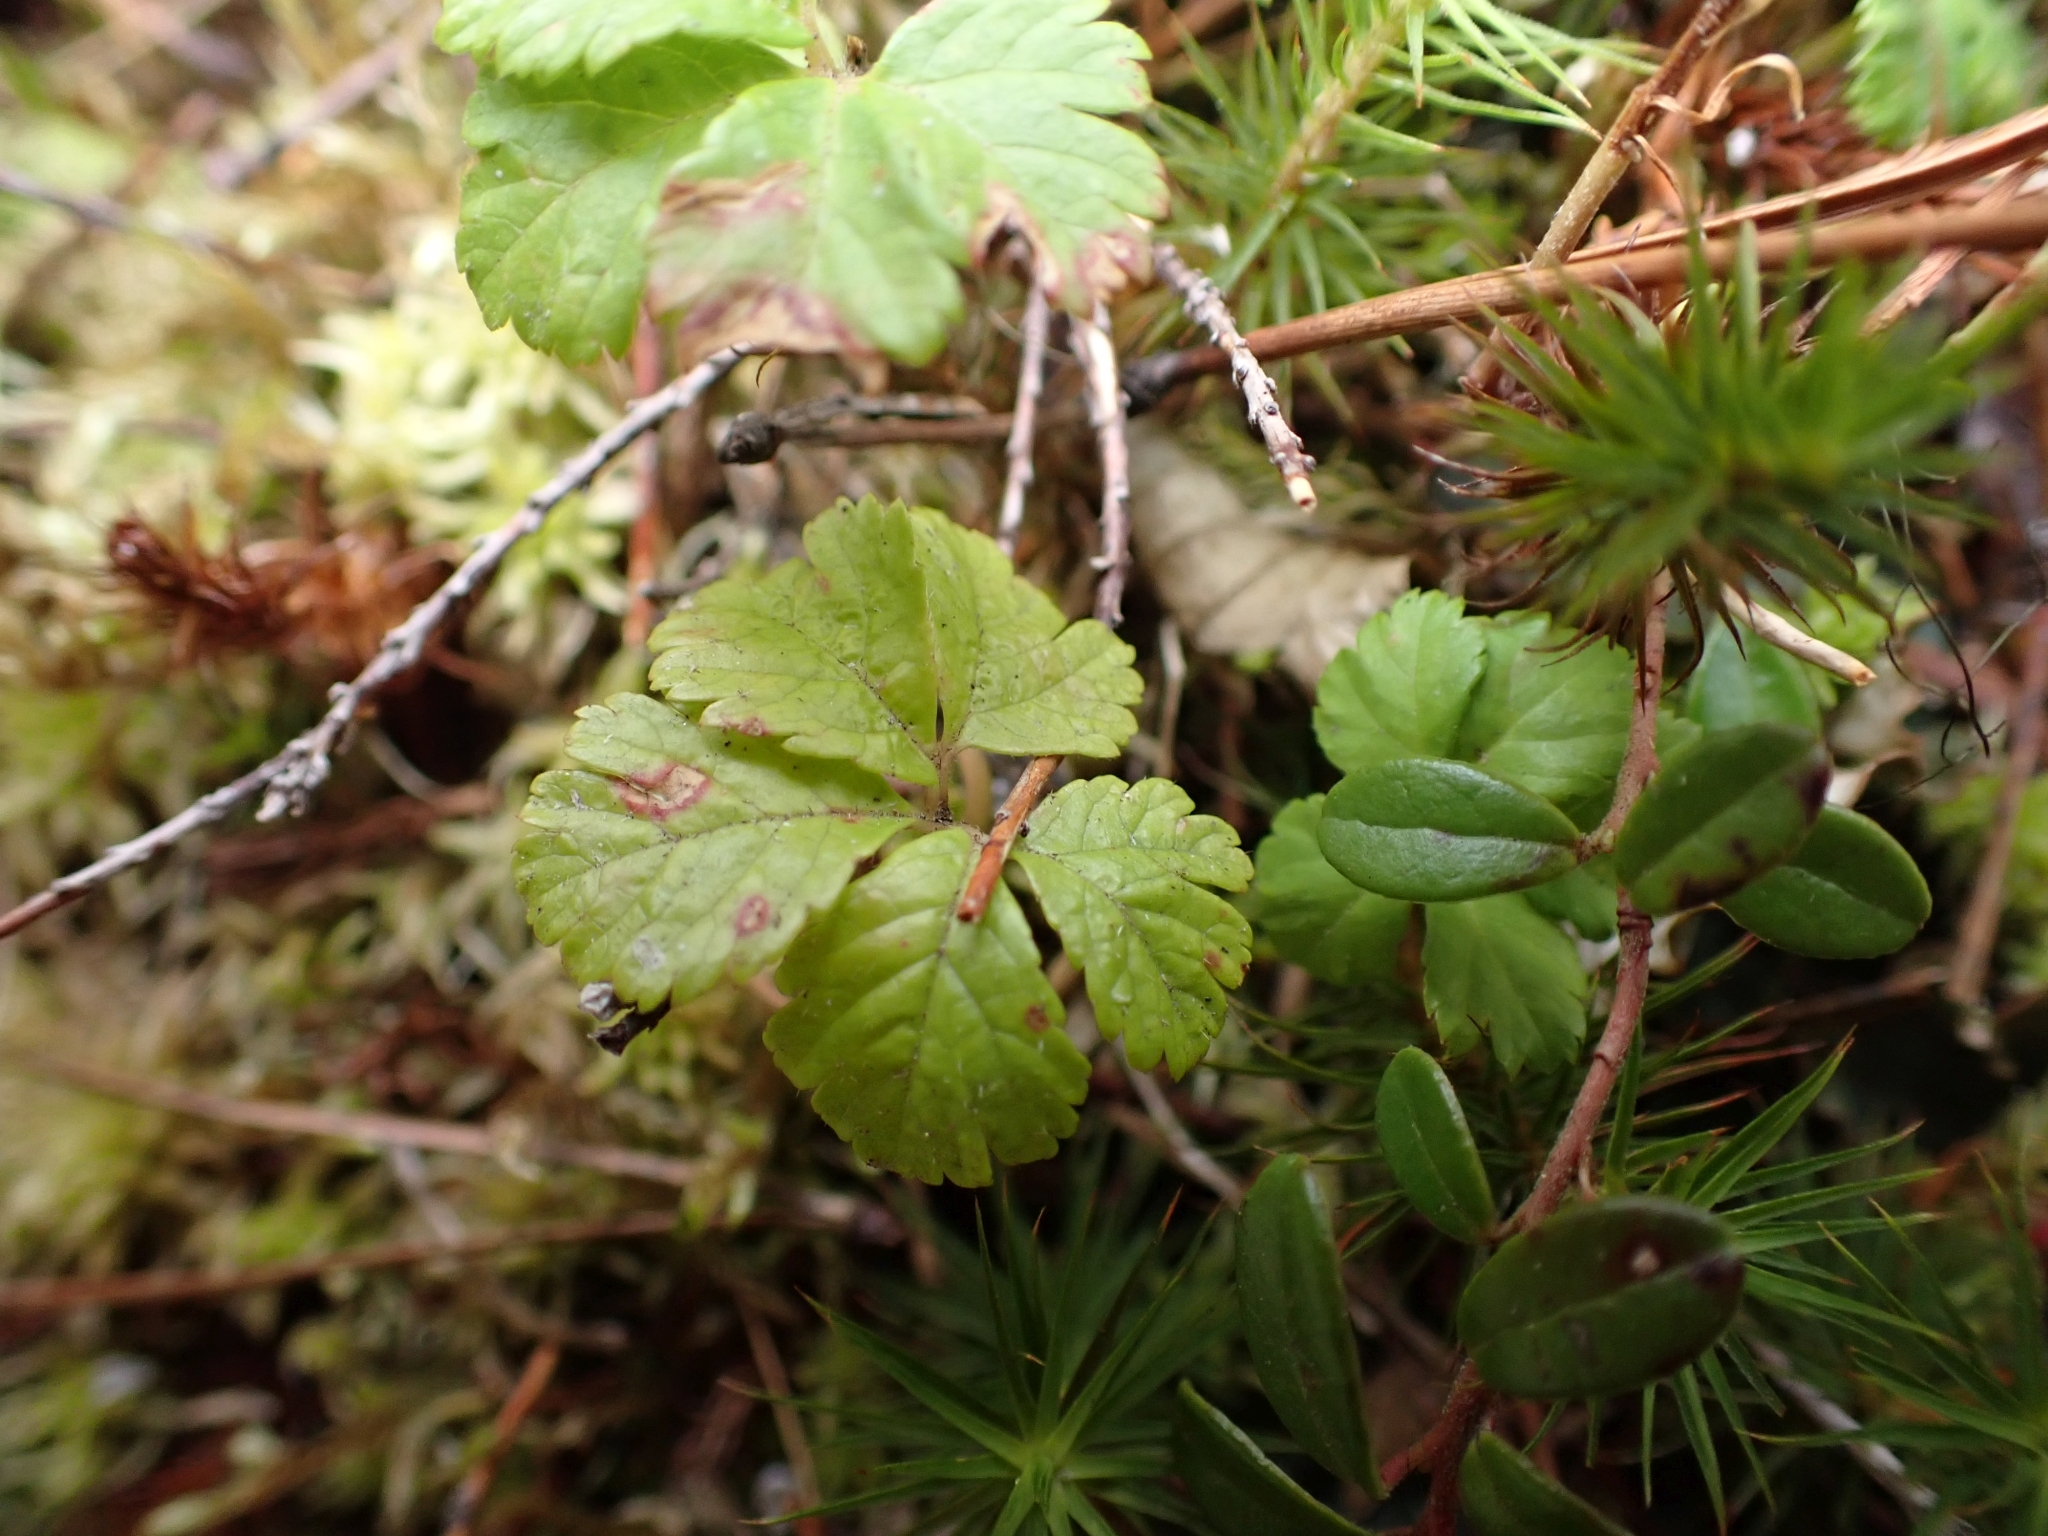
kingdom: Plantae
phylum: Tracheophyta
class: Magnoliopsida
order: Rosales
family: Rosaceae
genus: Rubus
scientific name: Rubus pedatus
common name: Creeping raspberry
